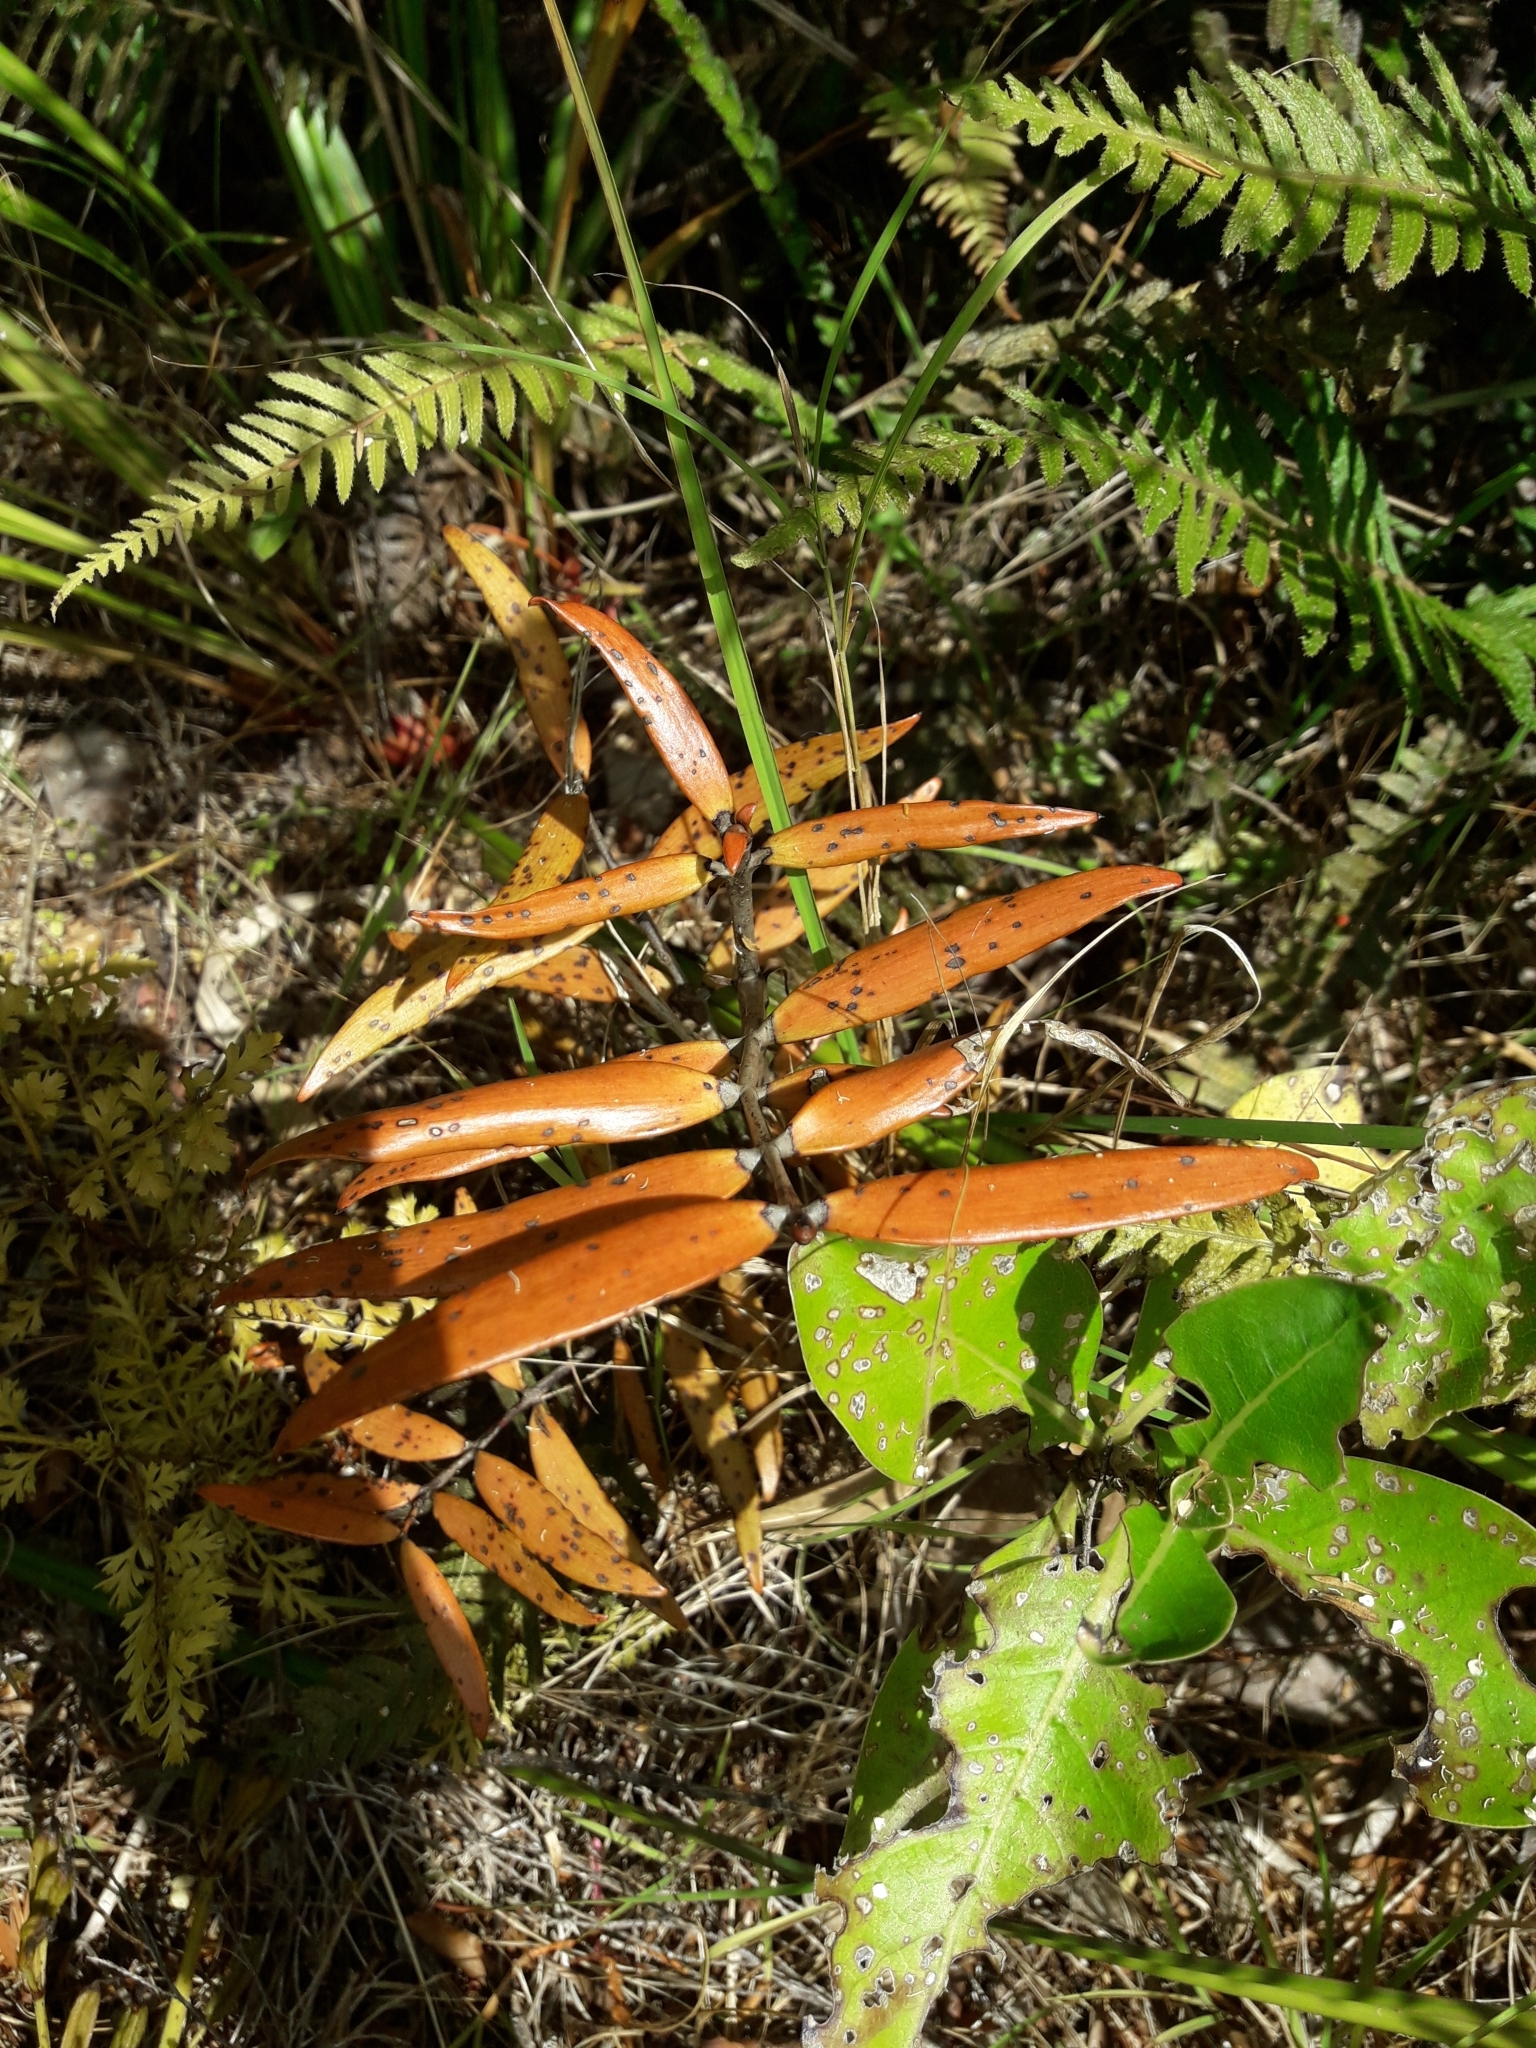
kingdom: Plantae
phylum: Tracheophyta
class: Pinopsida
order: Pinales
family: Araucariaceae
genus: Agathis
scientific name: Agathis australis
